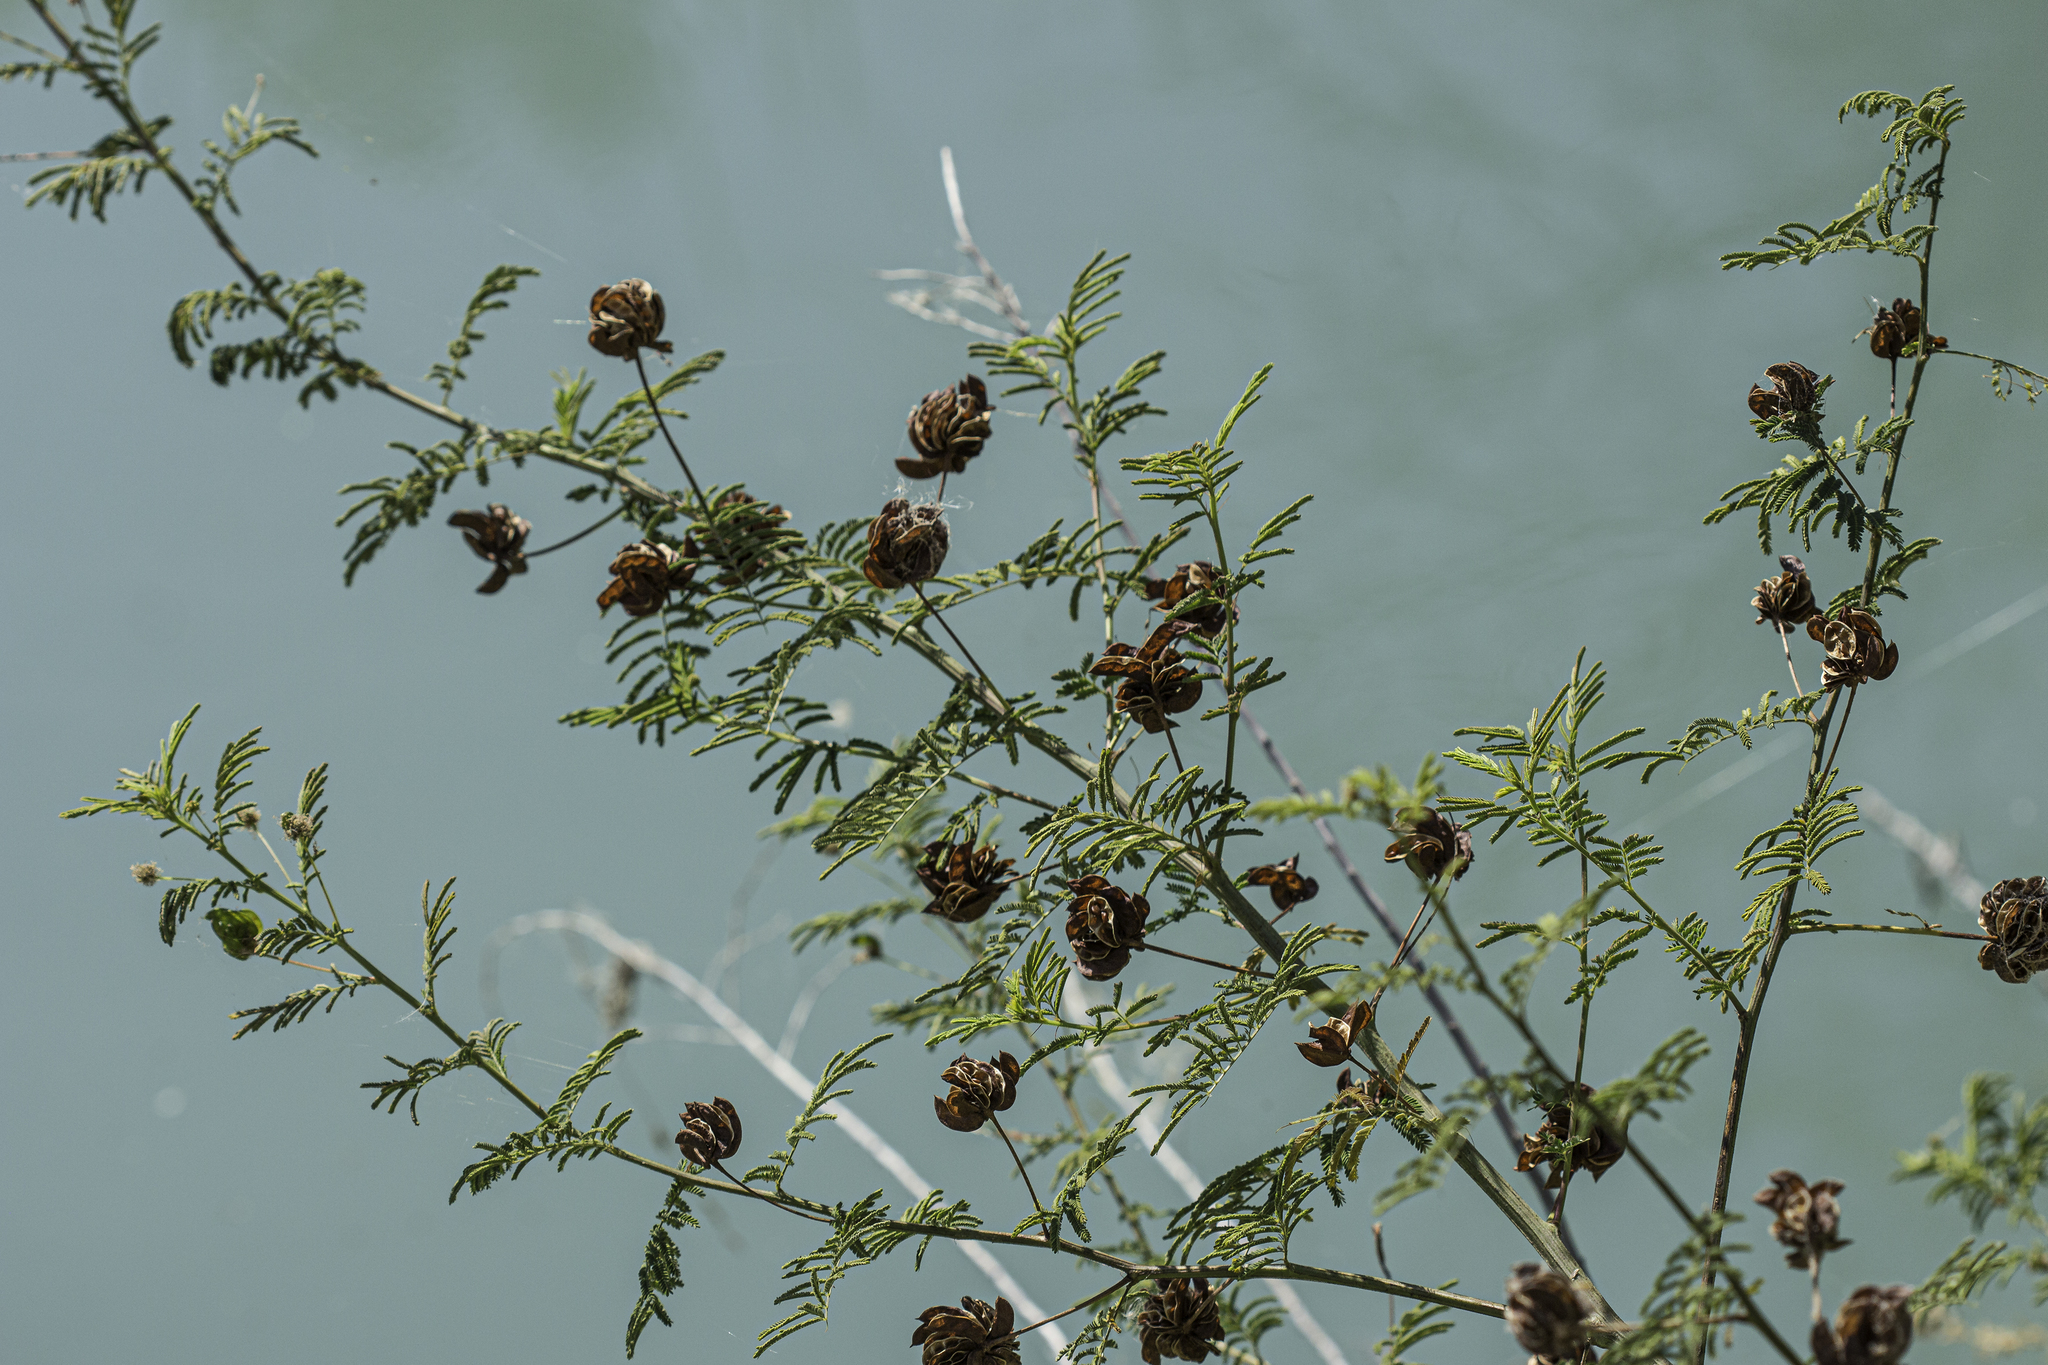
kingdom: Plantae
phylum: Tracheophyta
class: Magnoliopsida
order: Fabales
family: Fabaceae
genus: Desmanthus
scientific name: Desmanthus illinoensis
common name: Illinois bundle-flower
